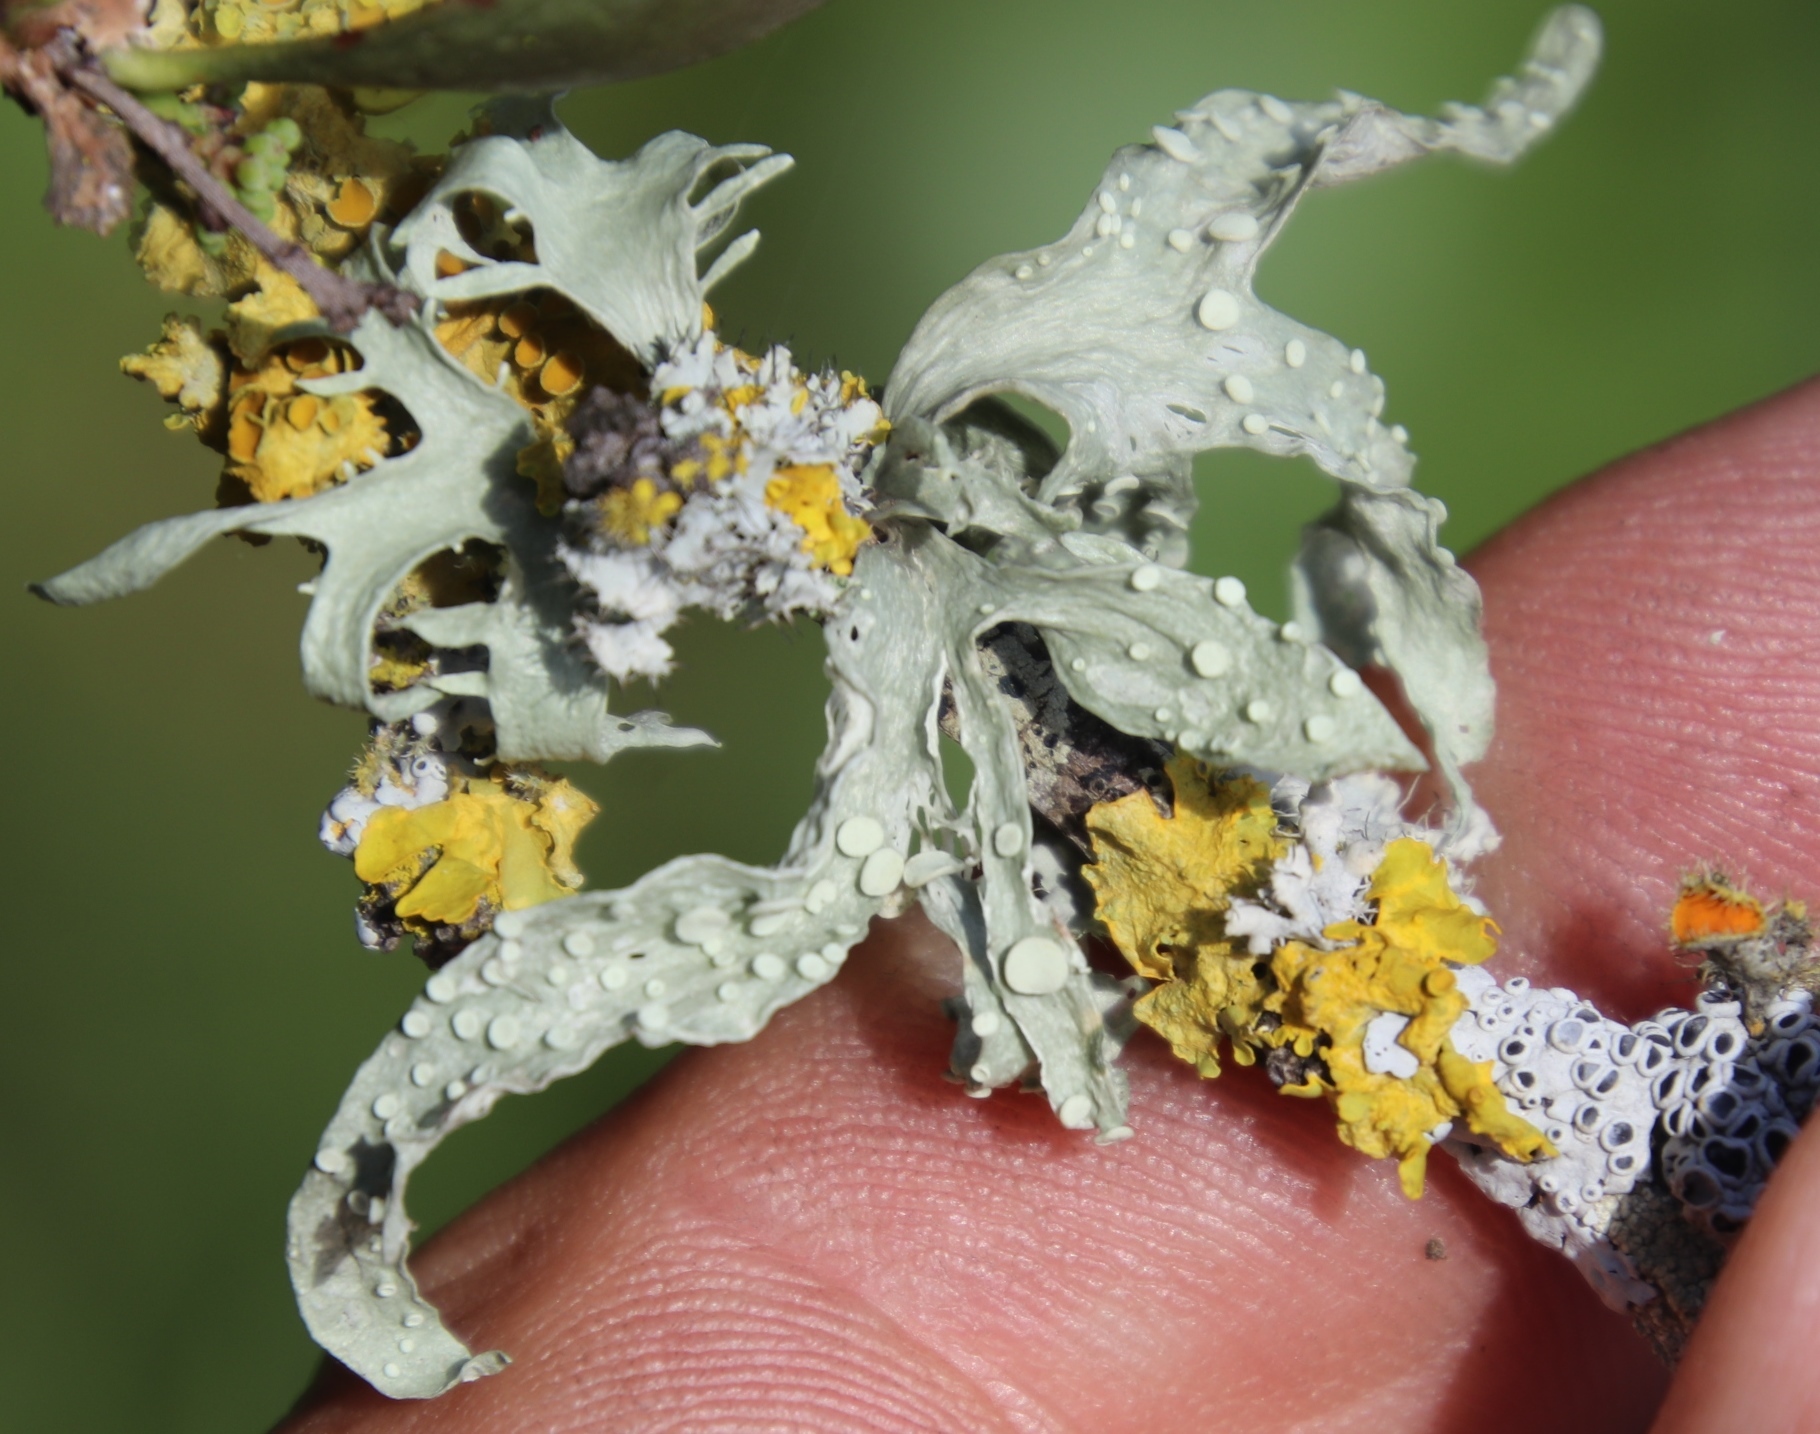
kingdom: Fungi
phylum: Ascomycota
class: Lecanoromycetes
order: Teloschistales
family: Teloschistaceae
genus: Xanthoria
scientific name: Xanthoria parietina
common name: Common orange lichen
